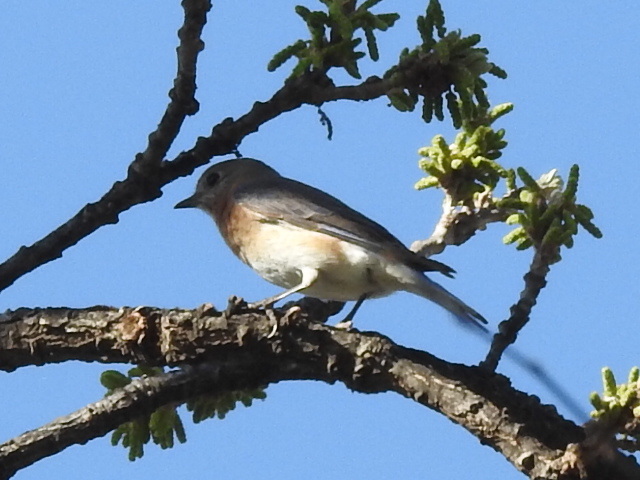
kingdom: Animalia
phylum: Chordata
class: Aves
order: Passeriformes
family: Turdidae
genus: Sialia
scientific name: Sialia sialis
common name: Eastern bluebird
